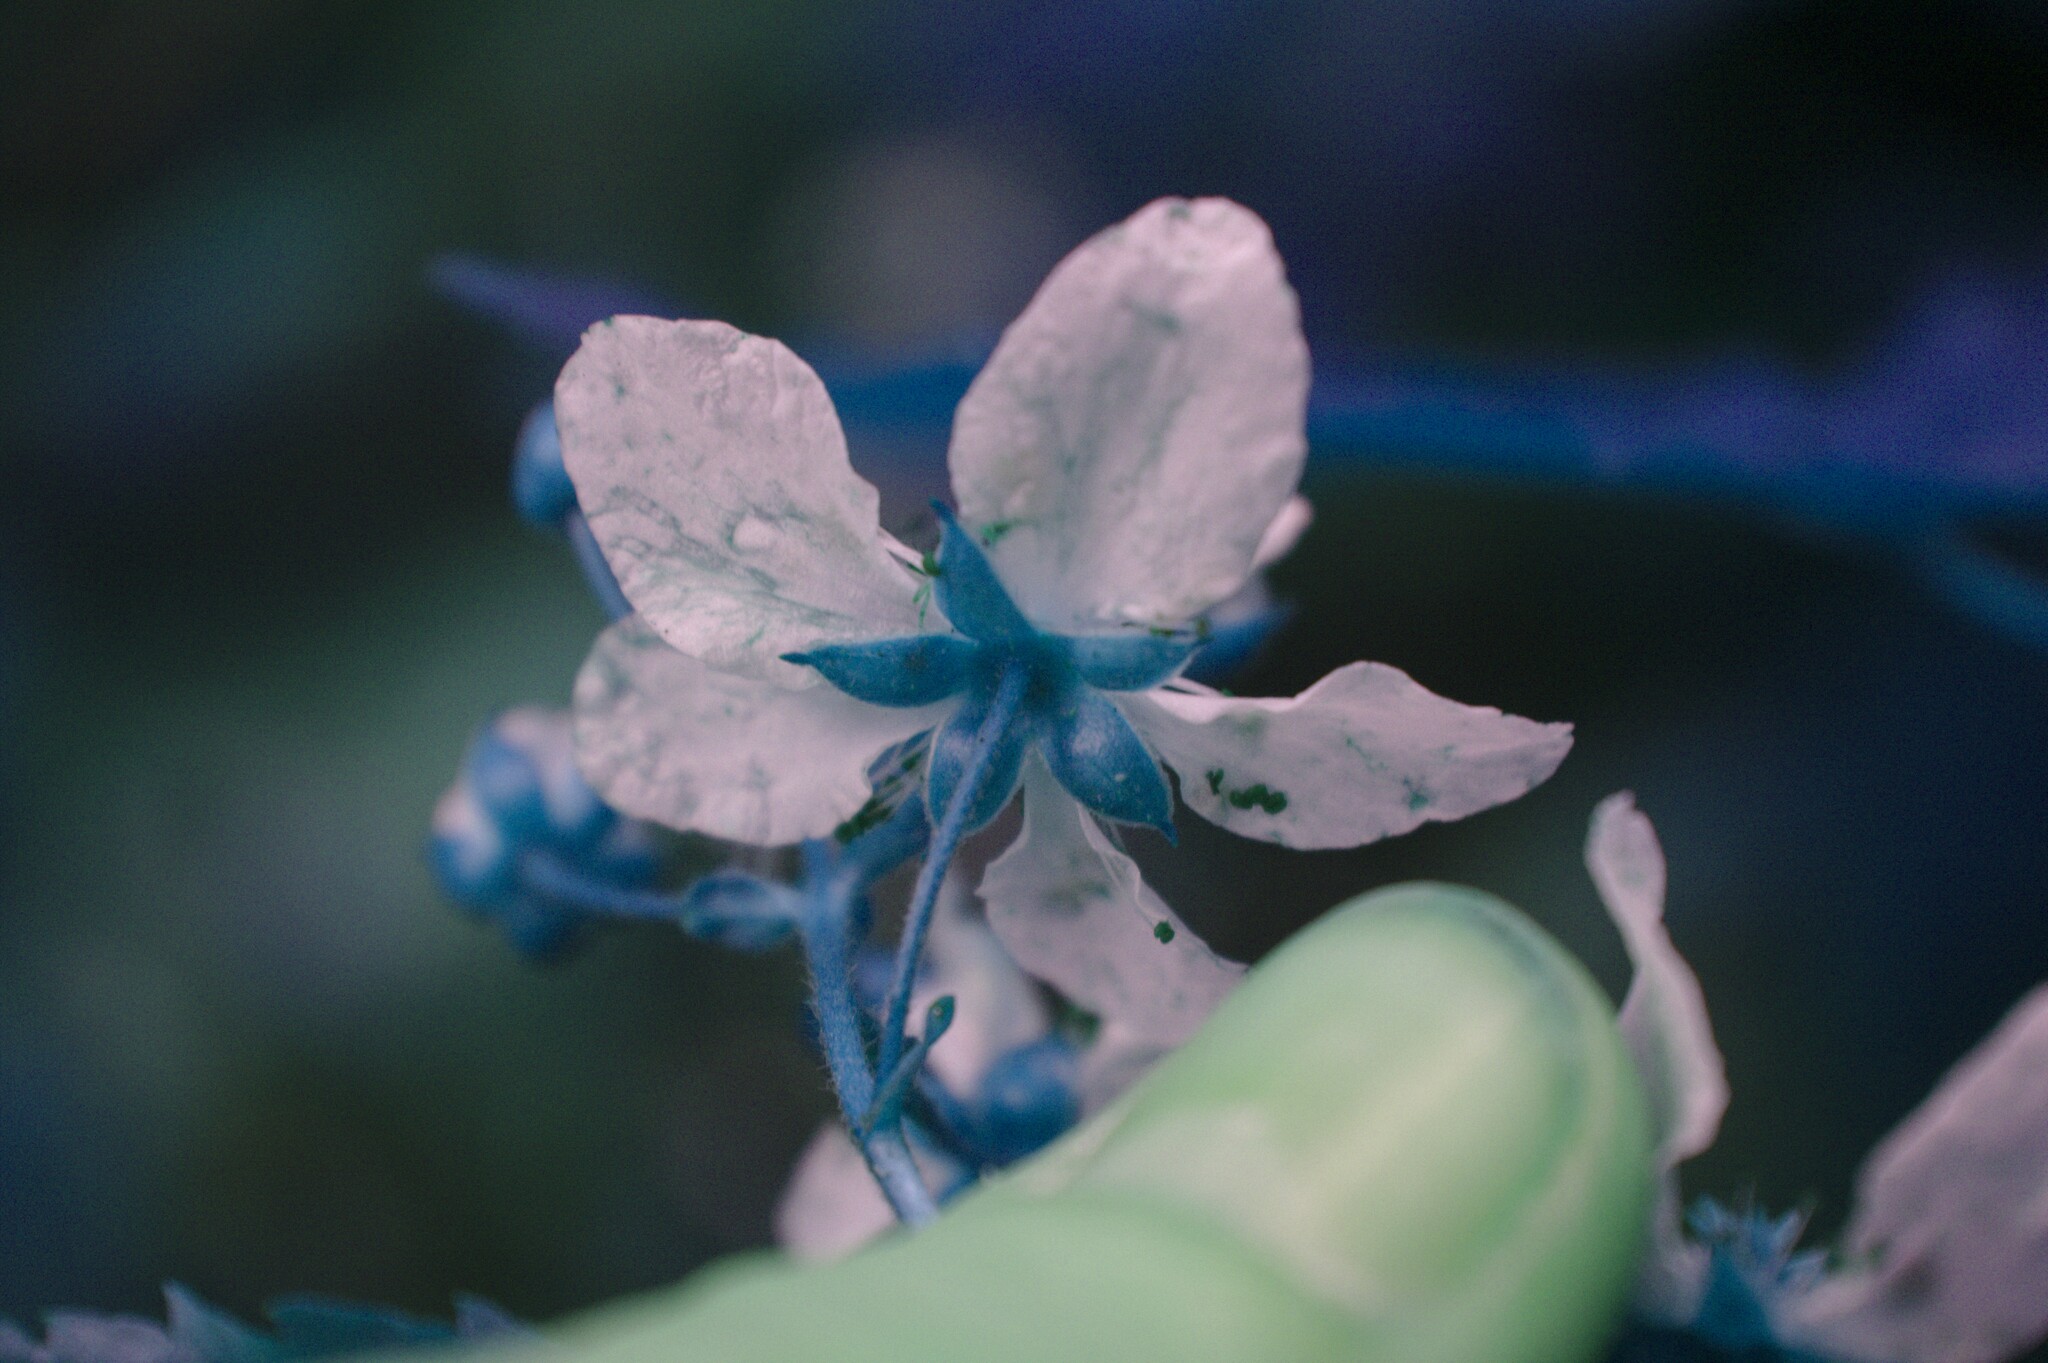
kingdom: Plantae
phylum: Tracheophyta
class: Magnoliopsida
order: Rosales
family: Rosaceae
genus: Rubus
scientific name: Rubus canadensis
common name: Smooth blackberry
